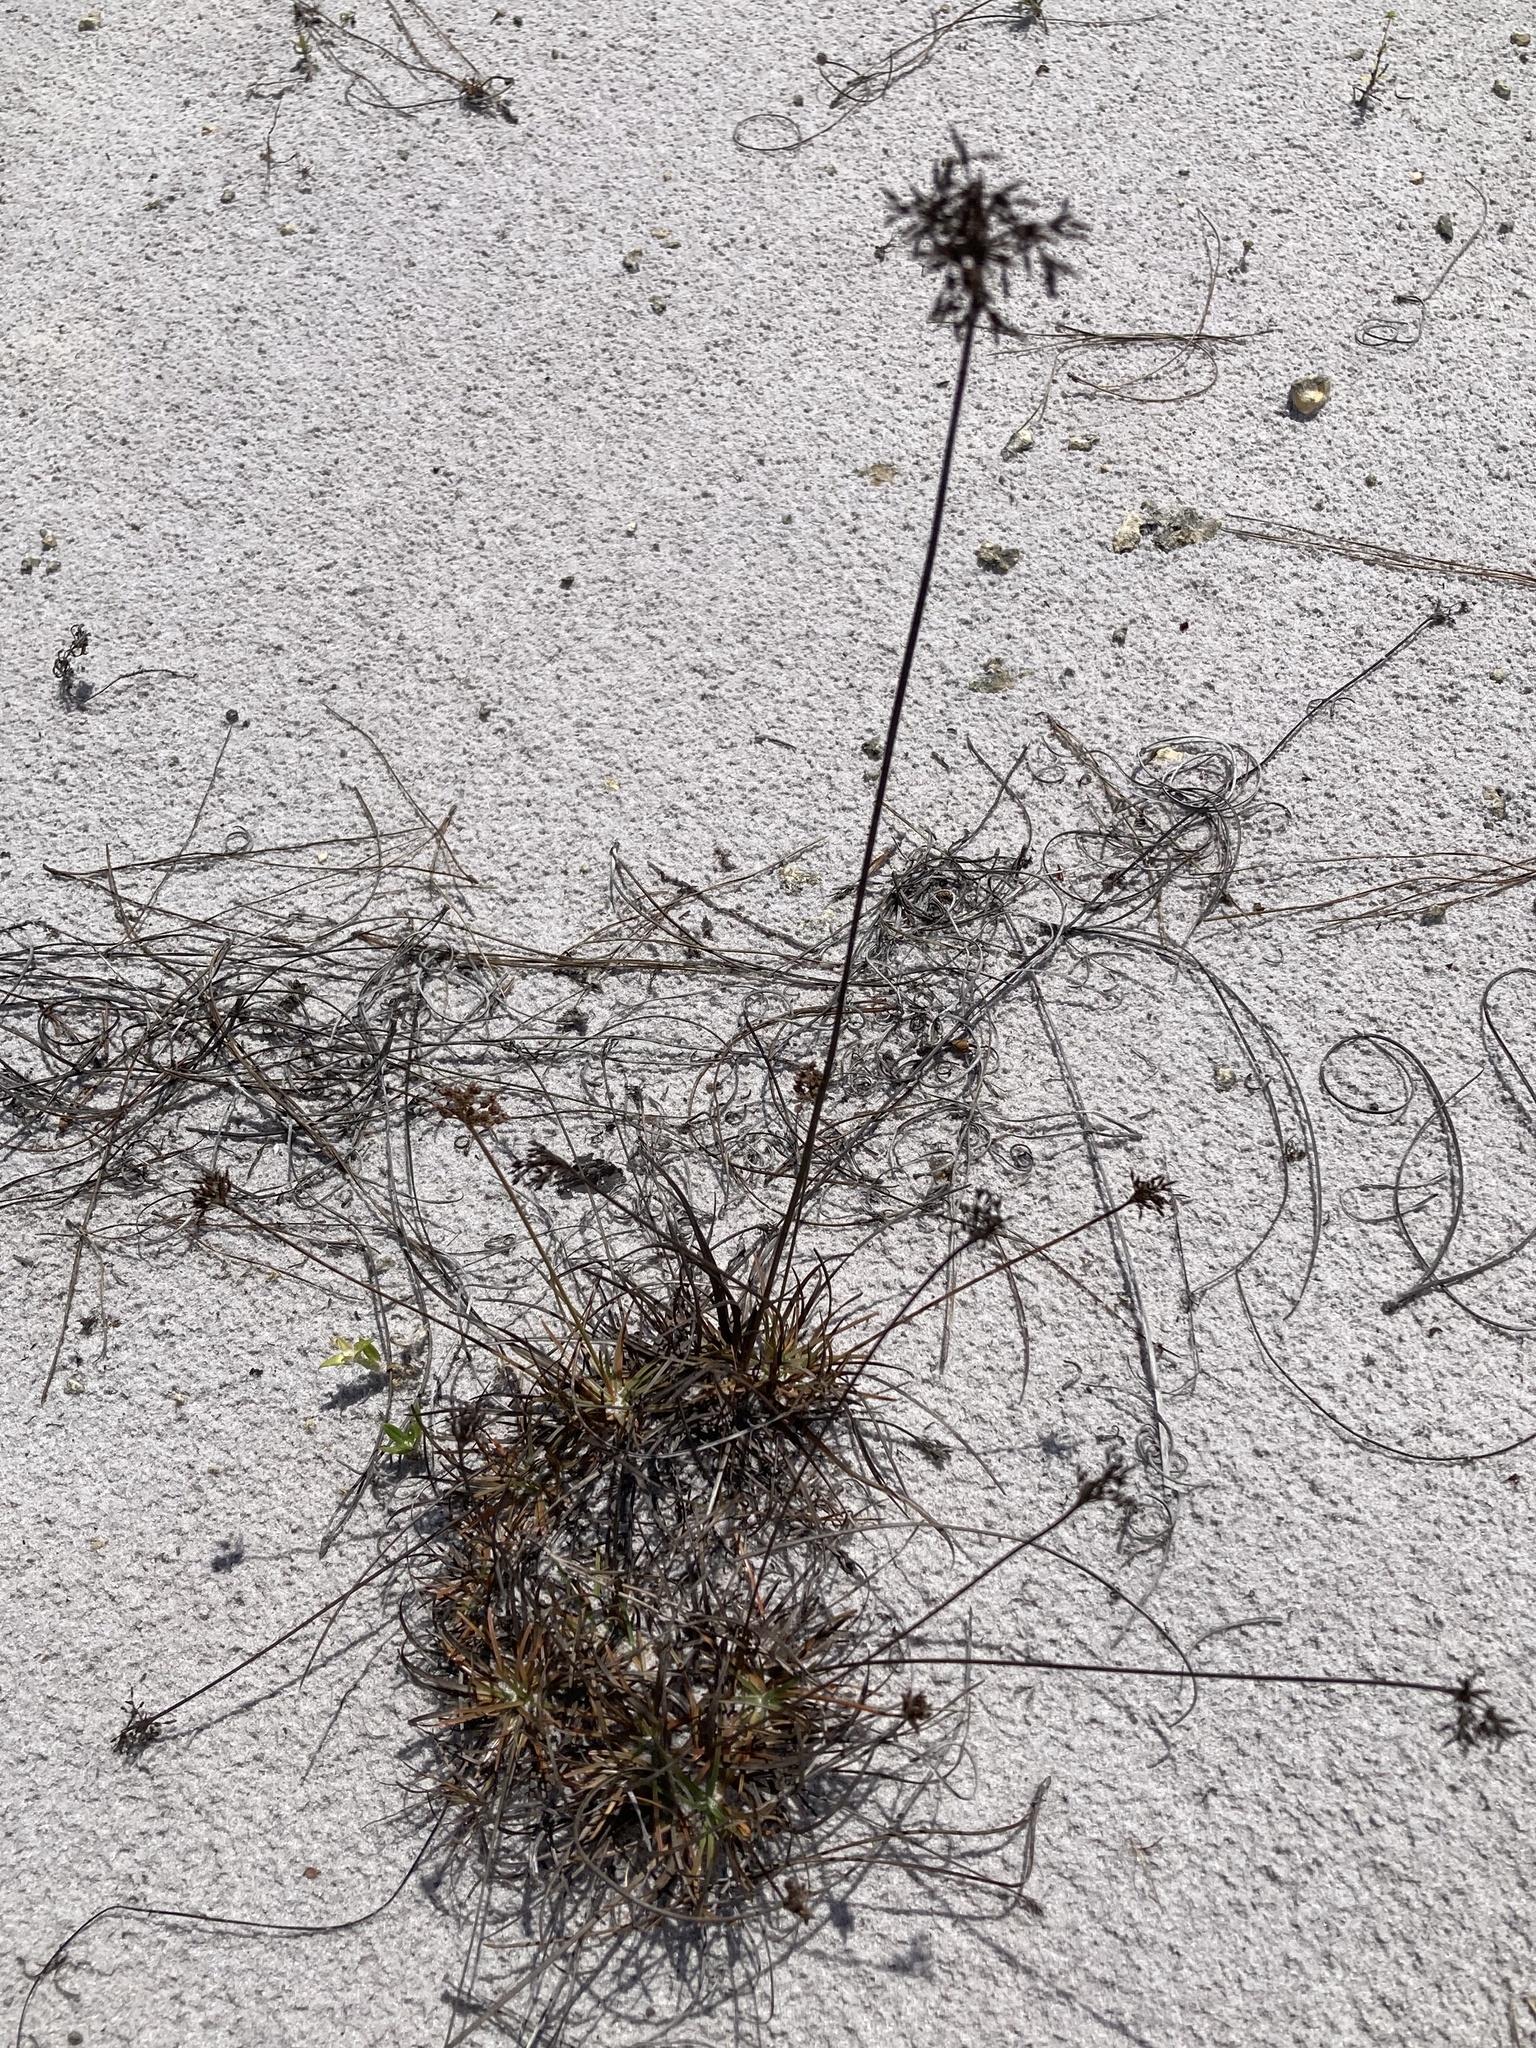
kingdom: Plantae
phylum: Tracheophyta
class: Liliopsida
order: Poales
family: Cyperaceae
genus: Fimbristylis
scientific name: Fimbristylis cymosa
